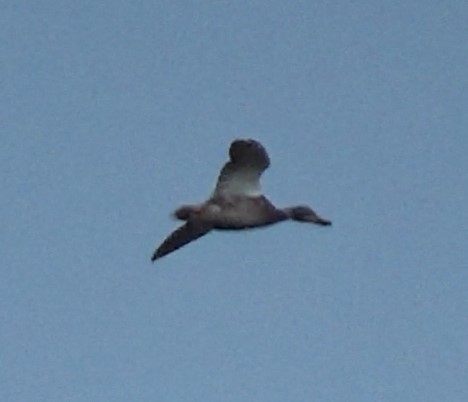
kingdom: Animalia
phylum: Chordata
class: Aves
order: Anseriformes
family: Anatidae
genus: Anas
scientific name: Anas platyrhynchos
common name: Mallard
